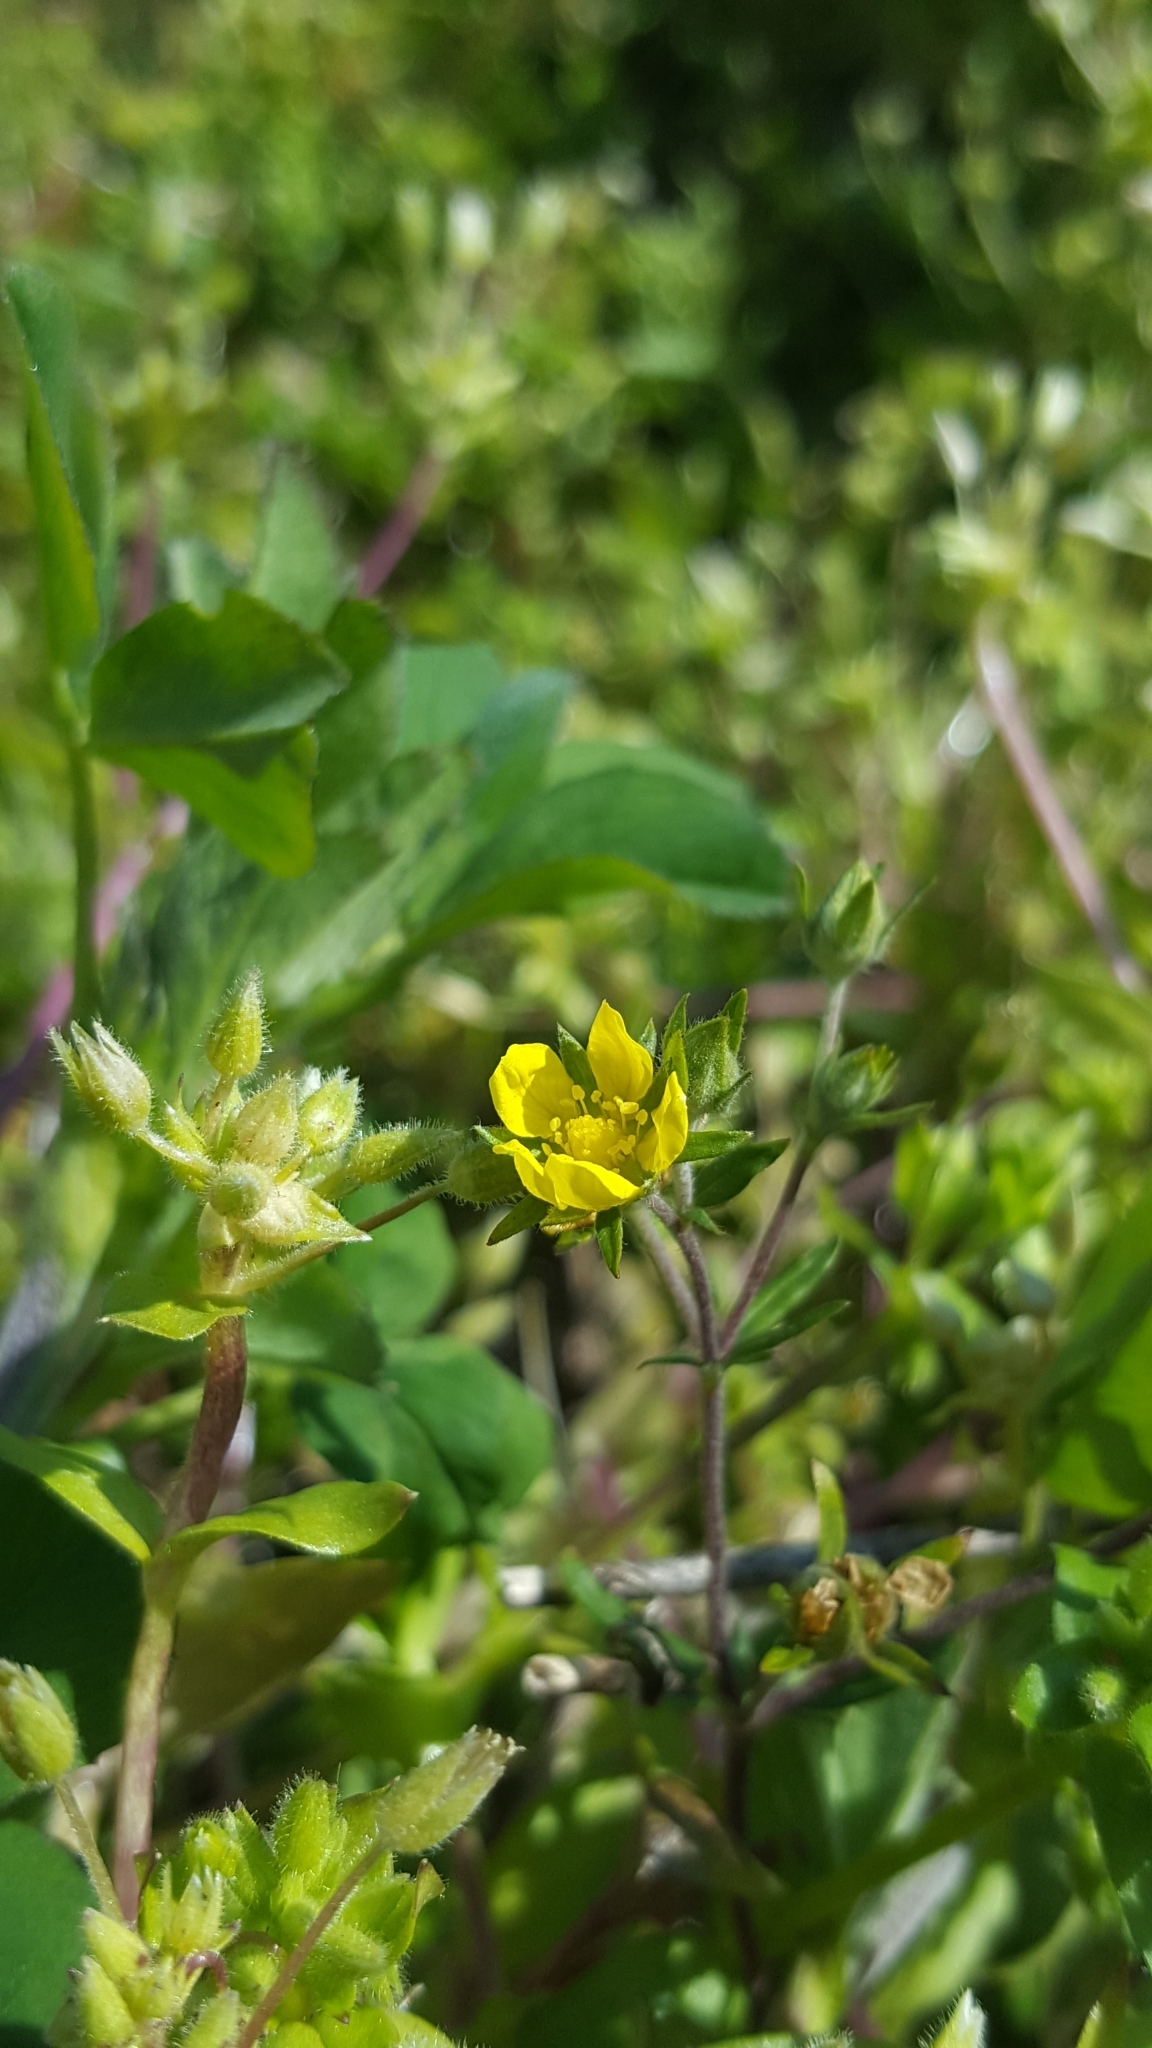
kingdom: Plantae
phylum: Tracheophyta
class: Magnoliopsida
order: Rosales
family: Rosaceae
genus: Potentilla
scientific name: Potentilla argentea
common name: Hoary cinquefoil
